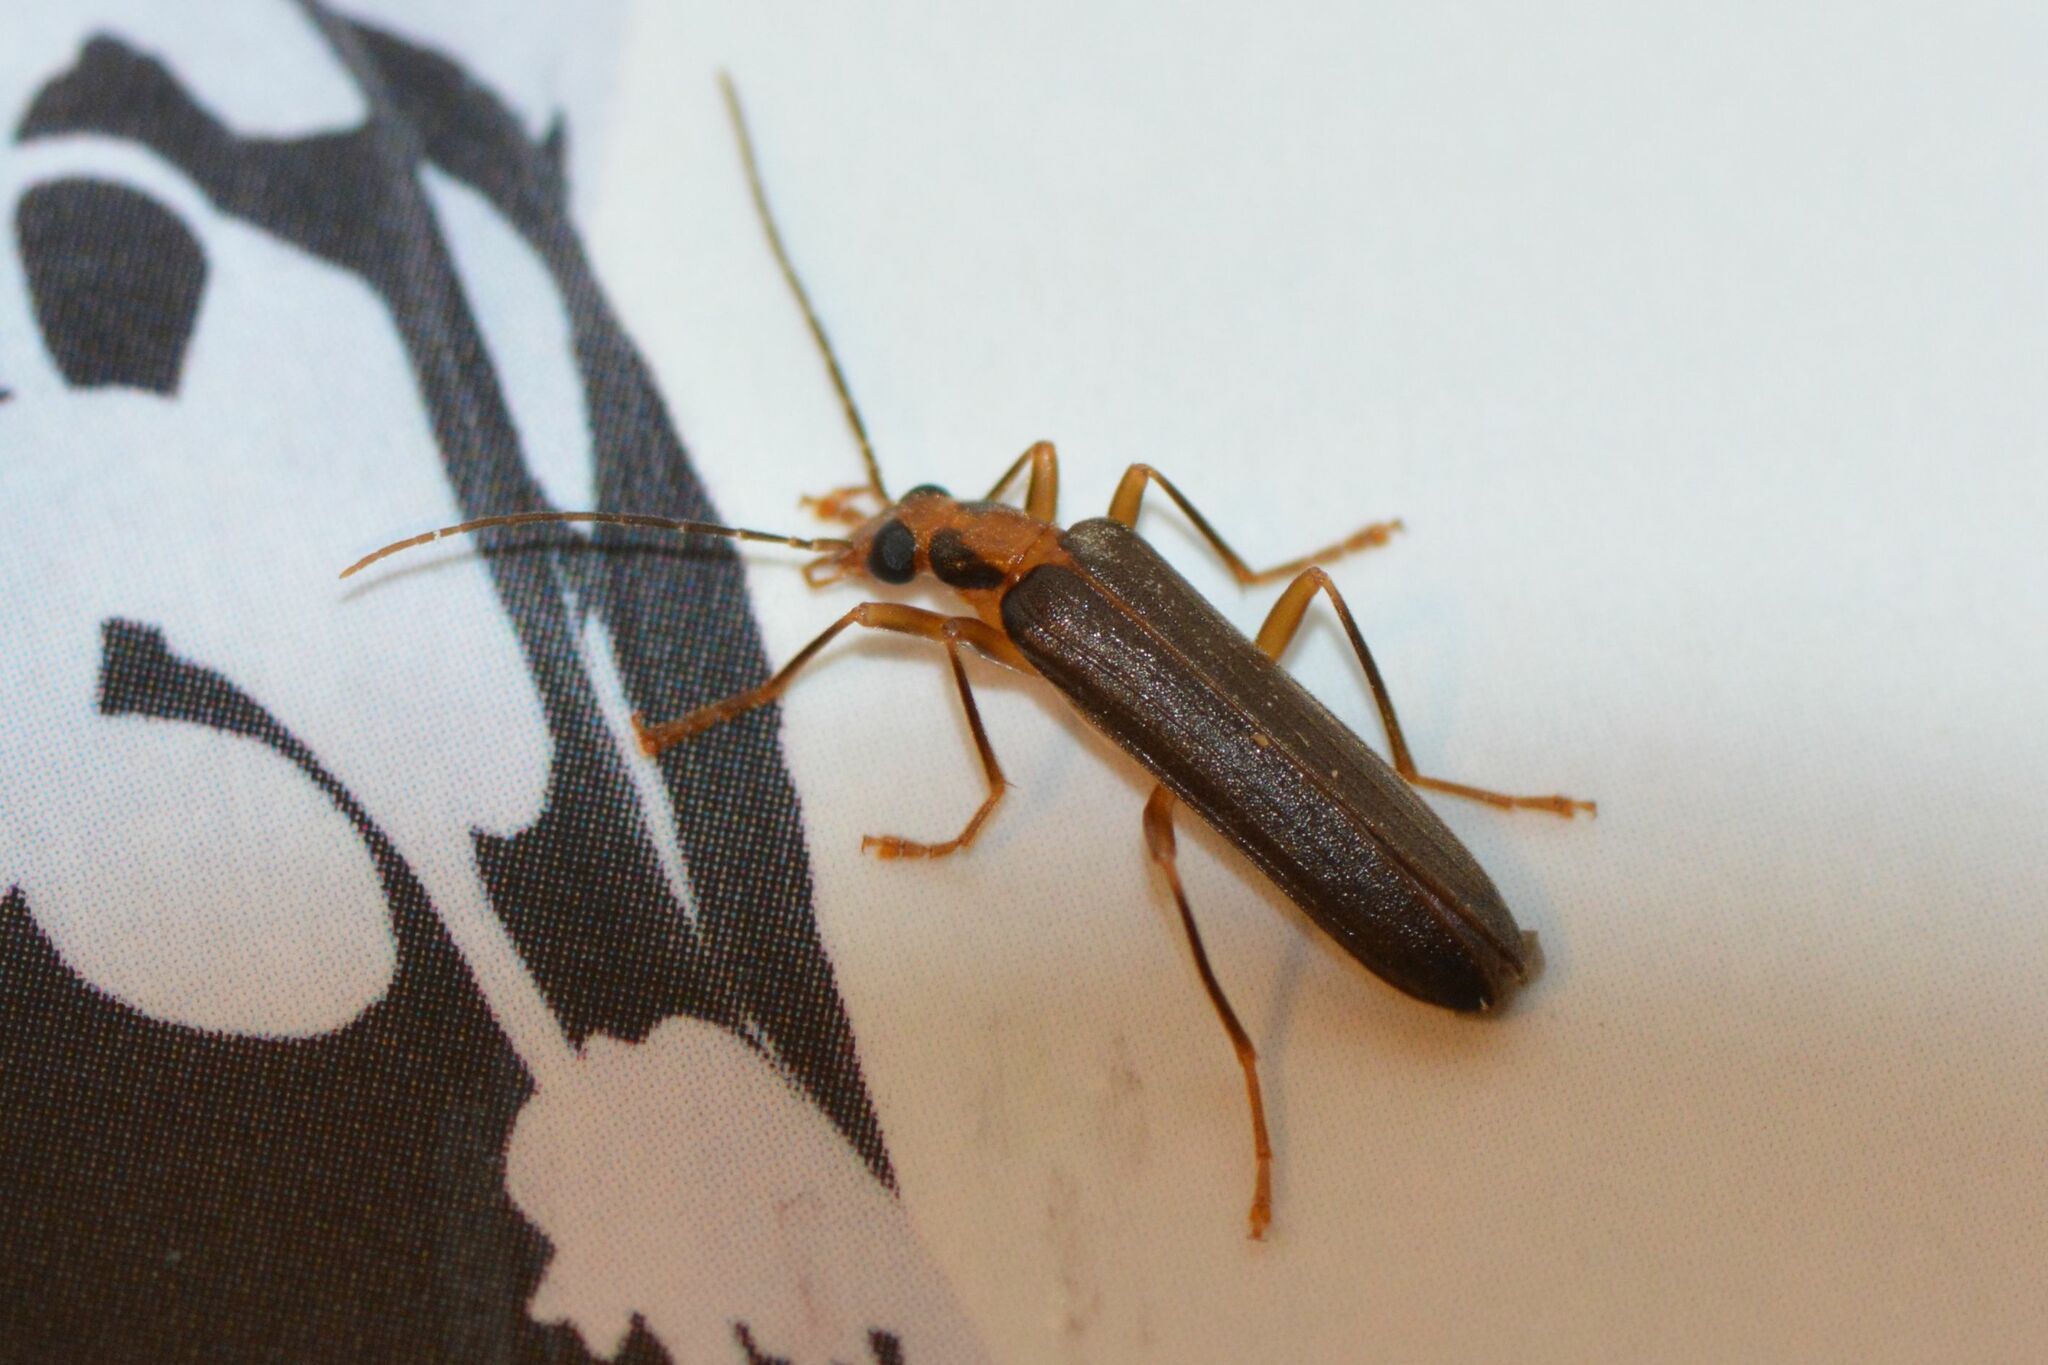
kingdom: Animalia
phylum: Arthropoda
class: Insecta
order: Coleoptera
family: Oedemeridae
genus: Nacerdes
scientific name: Nacerdes carniolica
